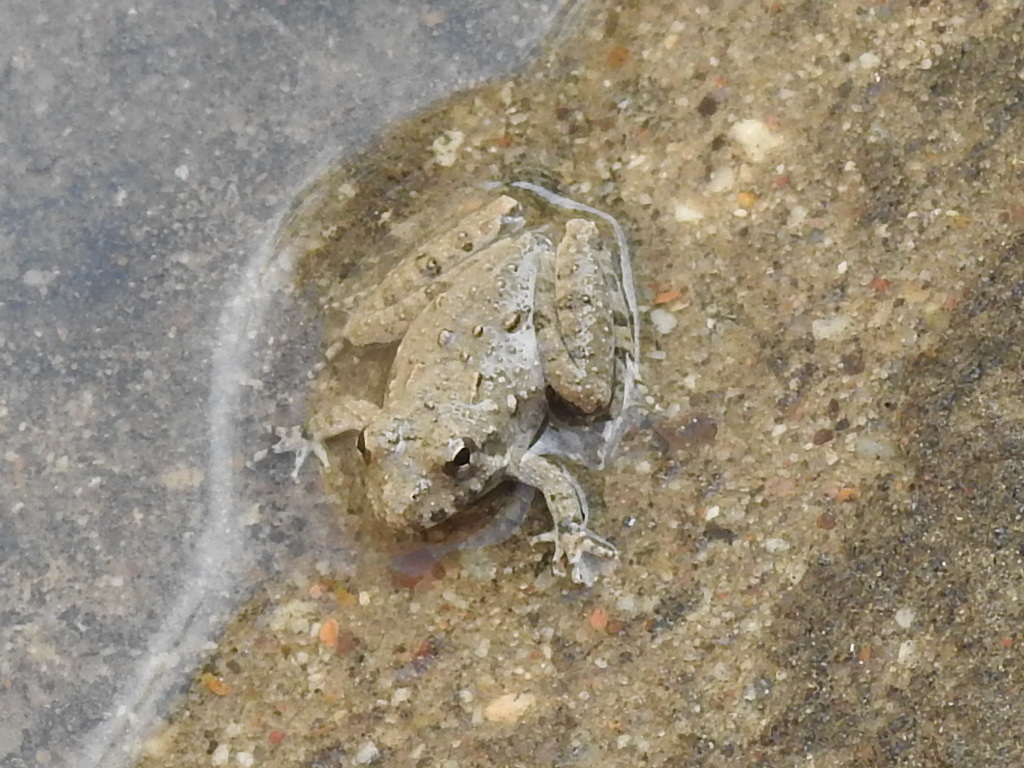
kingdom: Animalia
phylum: Chordata
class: Amphibia
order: Anura
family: Hylidae
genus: Acris
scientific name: Acris blanchardi
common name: Blanchard's cricket frog
